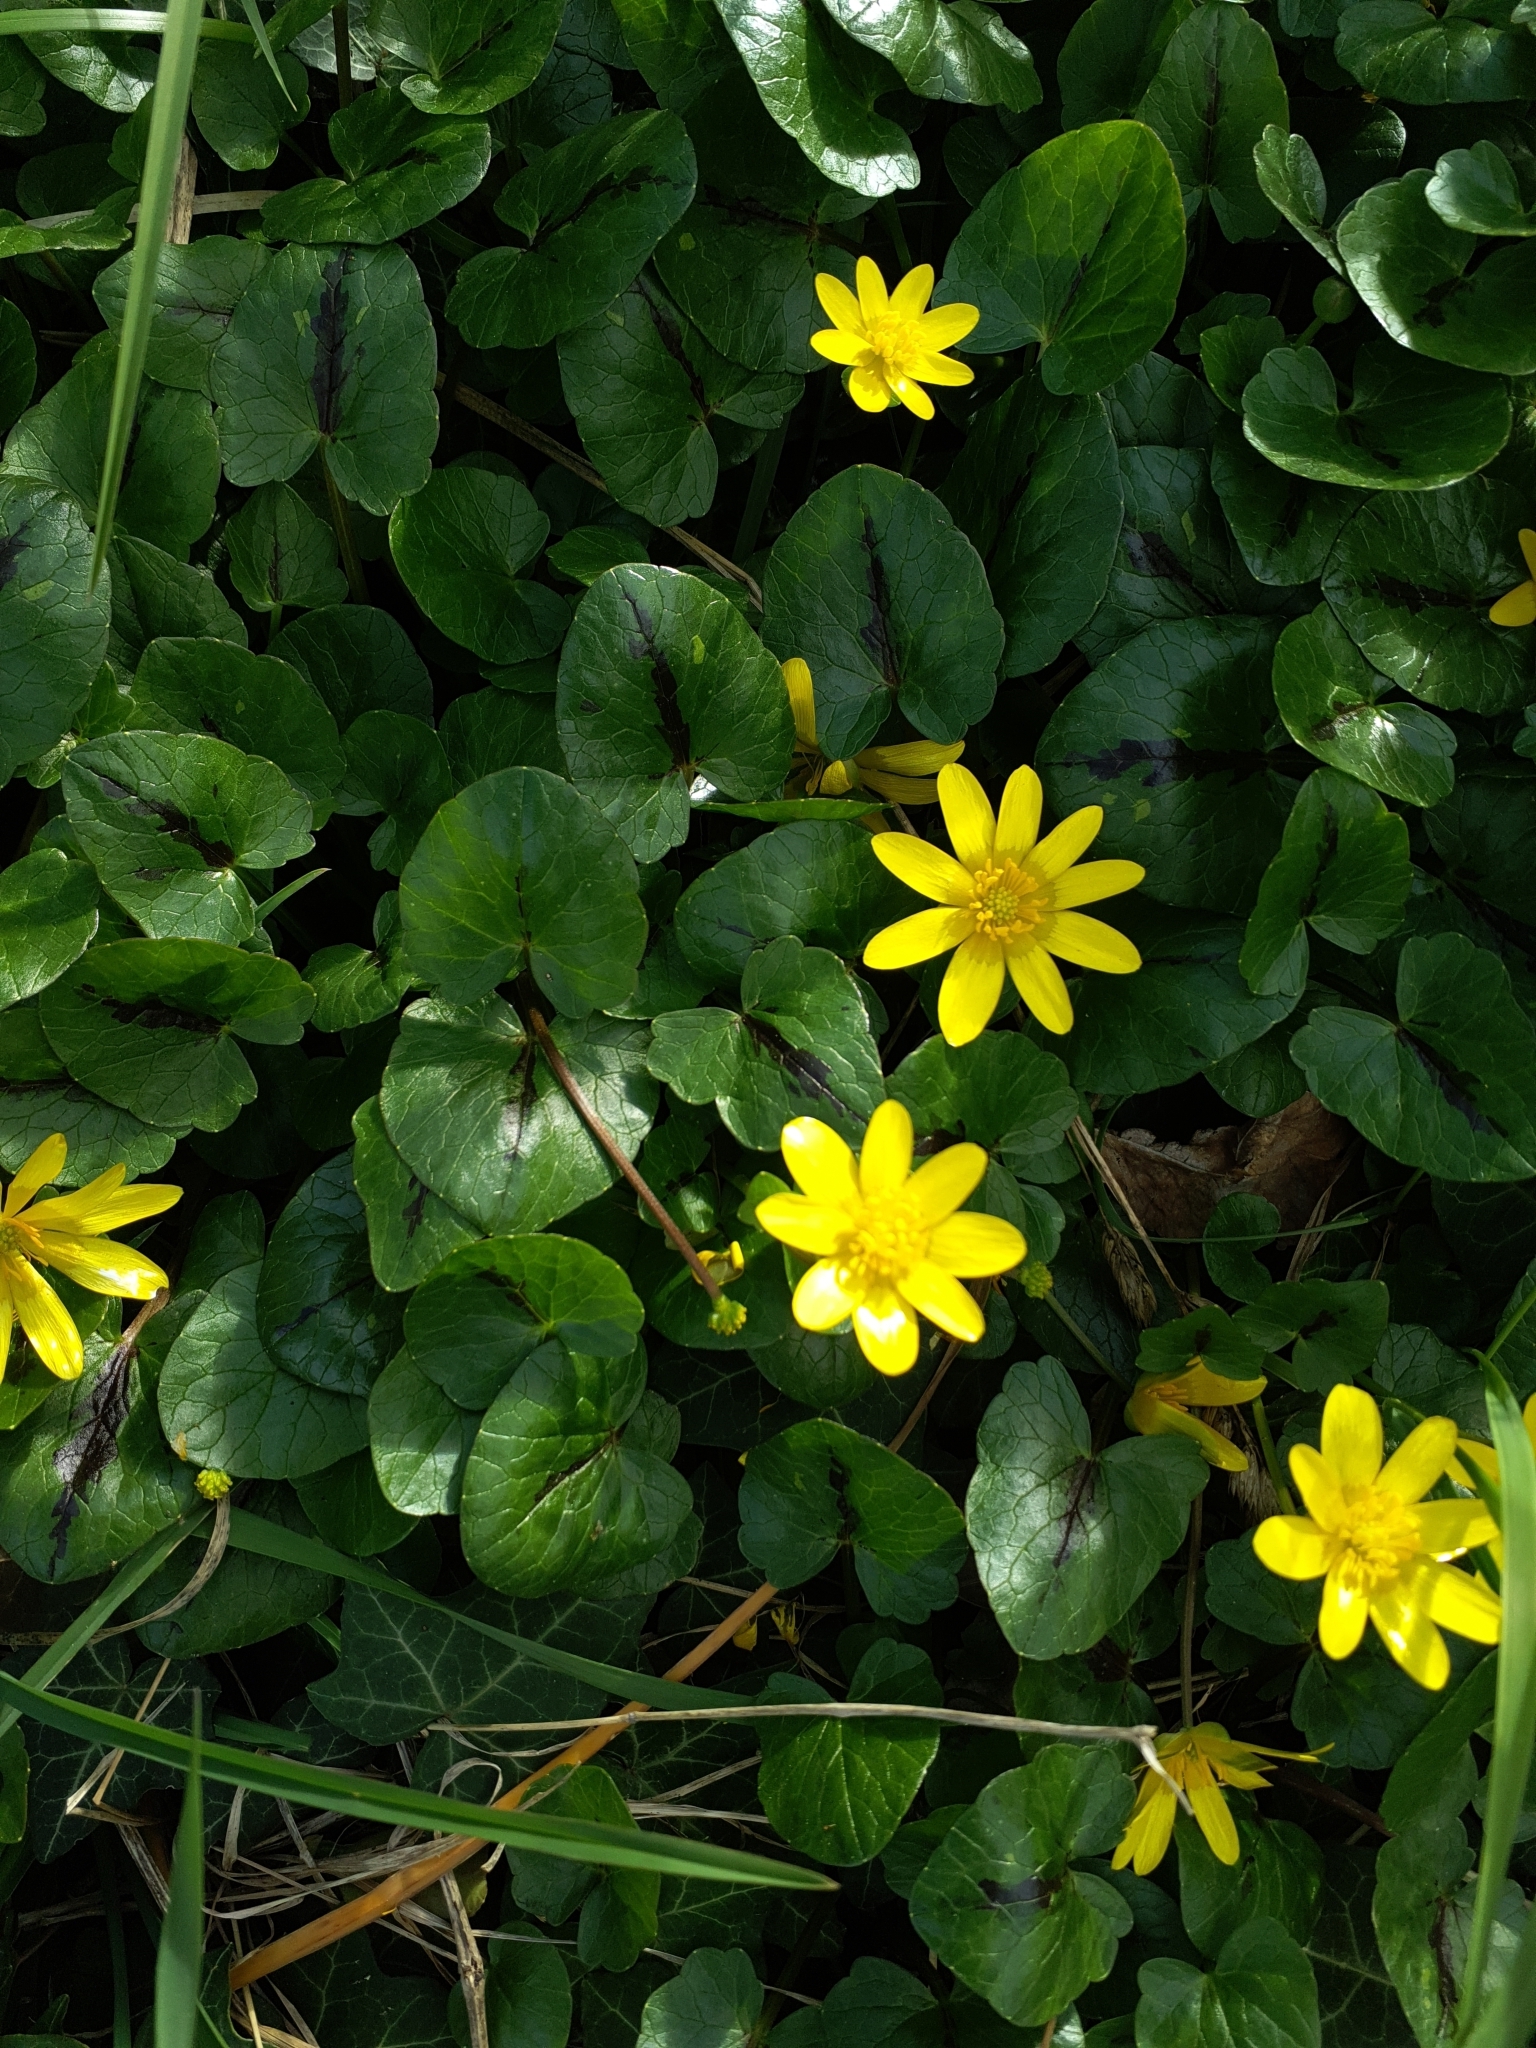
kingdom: Plantae
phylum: Tracheophyta
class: Magnoliopsida
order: Ranunculales
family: Ranunculaceae
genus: Ficaria
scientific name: Ficaria verna
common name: Lesser celandine
